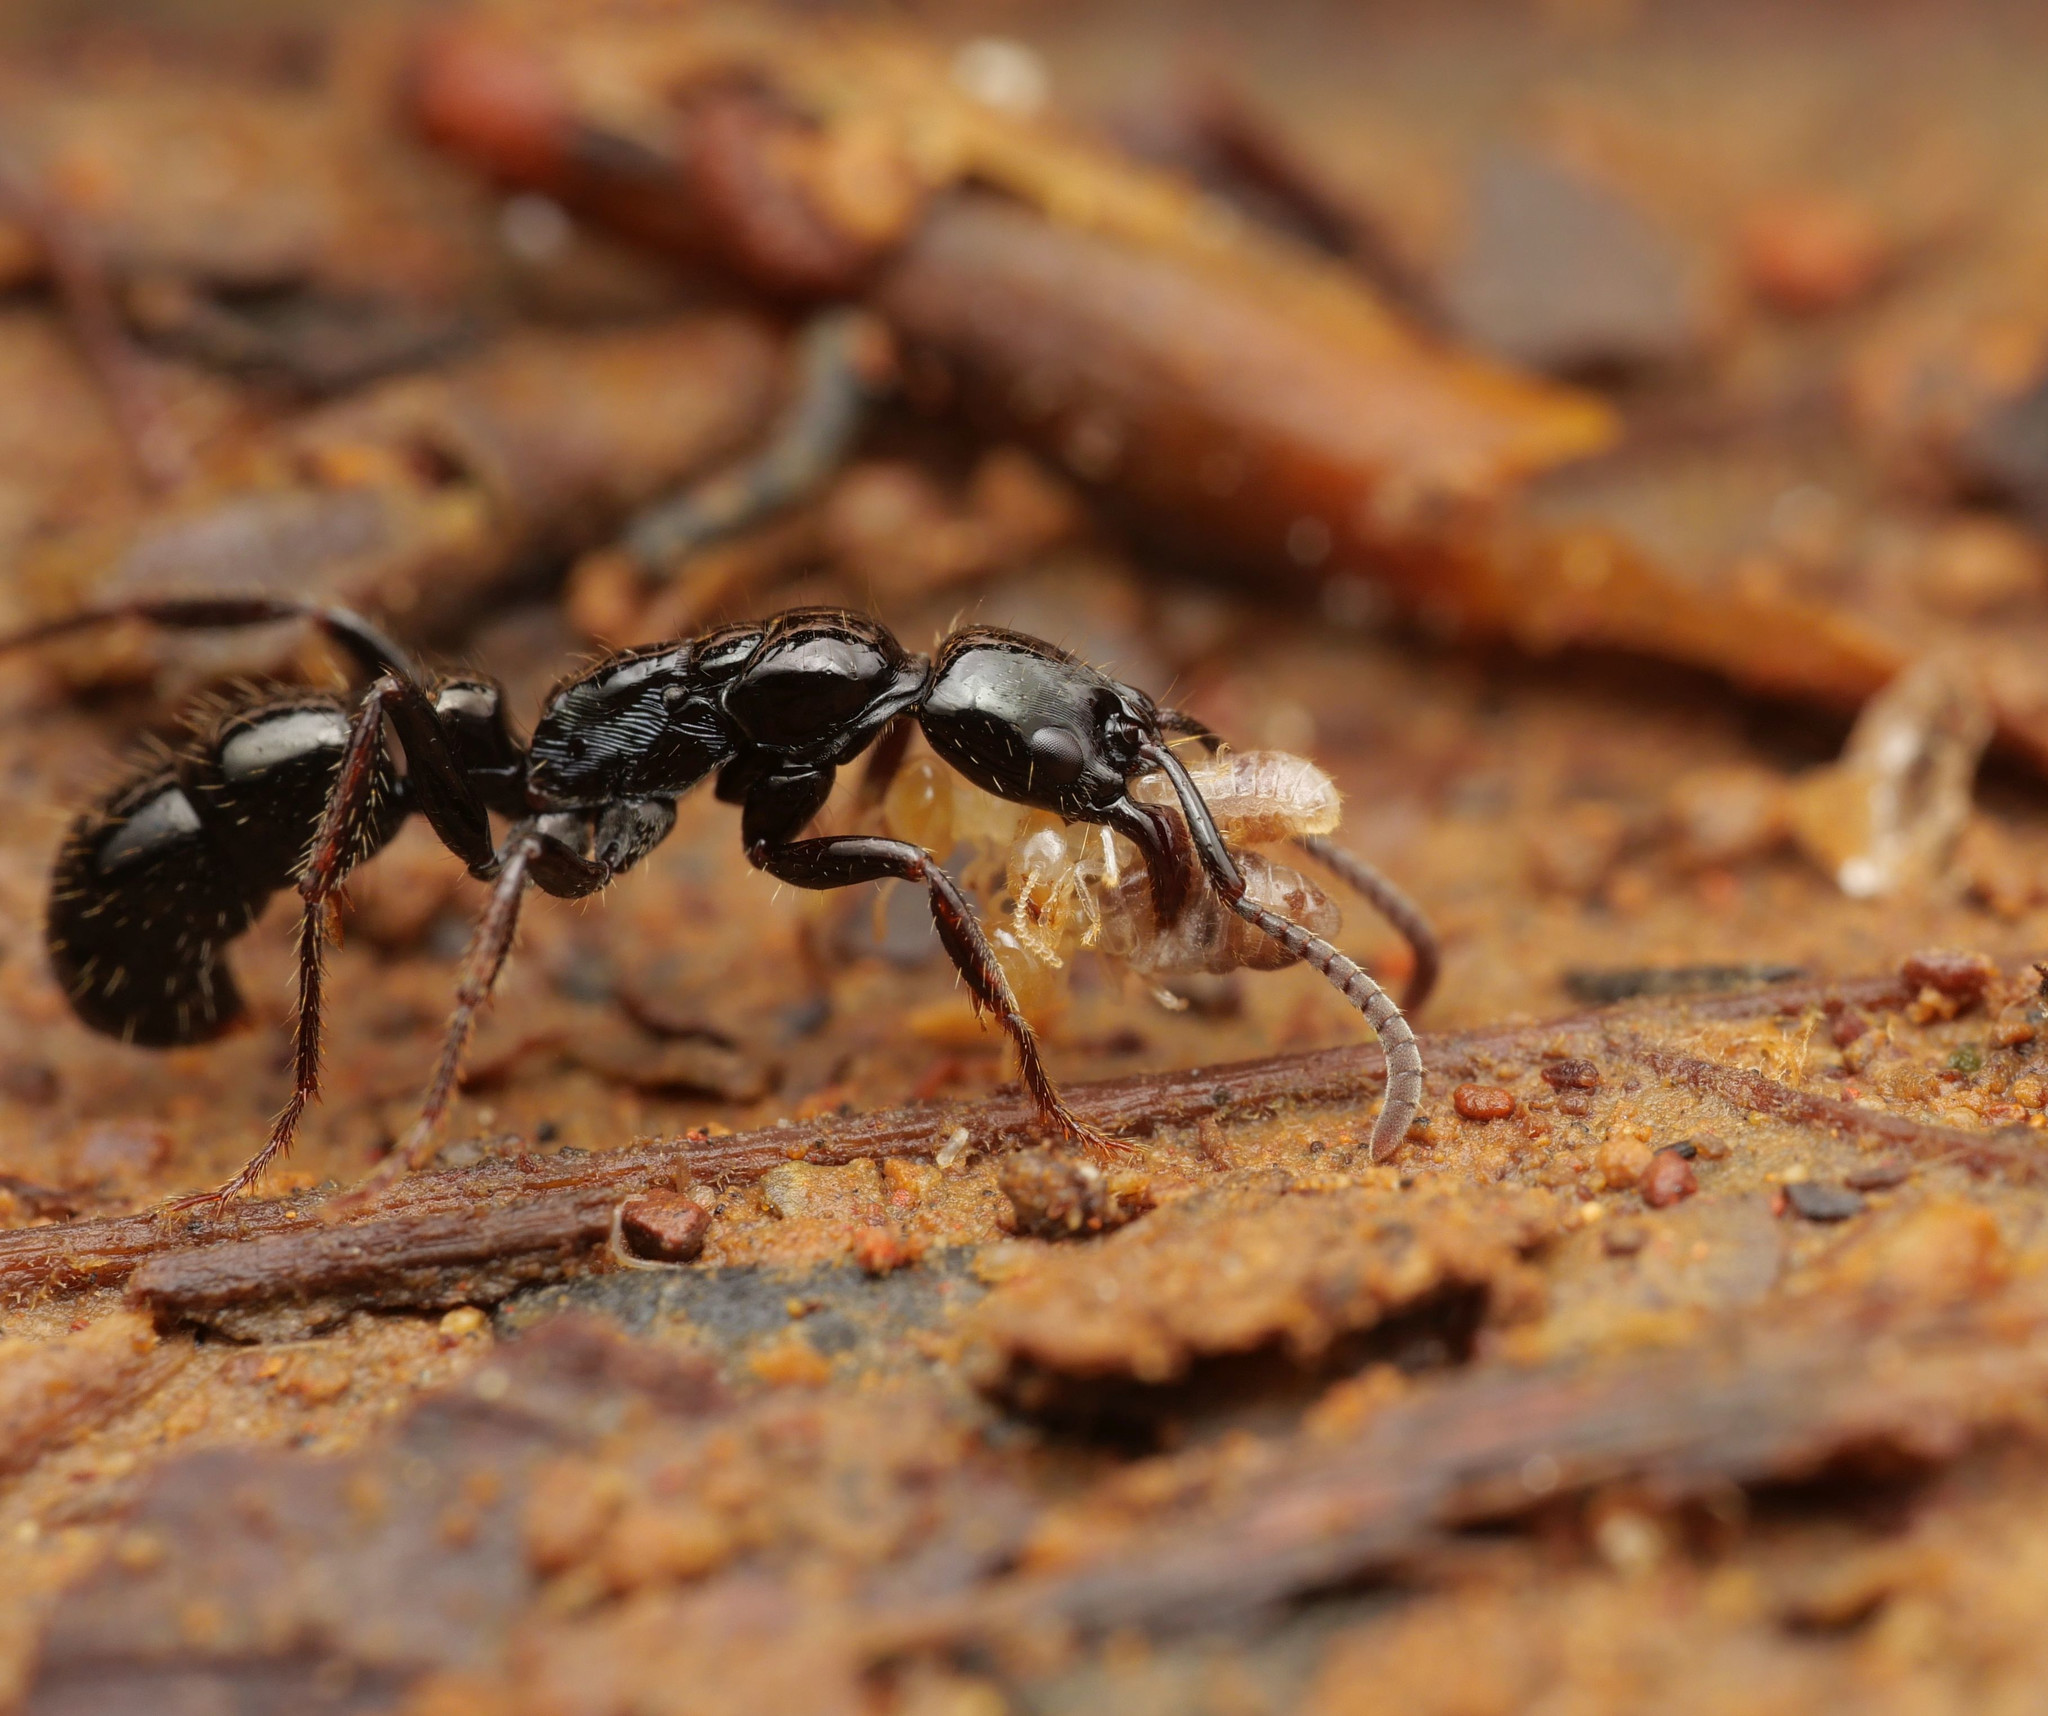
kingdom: Animalia
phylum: Arthropoda
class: Insecta
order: Hymenoptera
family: Formicidae
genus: Neoponera
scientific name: Neoponera laevigata
